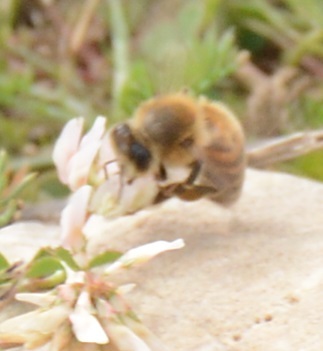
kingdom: Animalia
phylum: Arthropoda
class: Insecta
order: Hymenoptera
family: Apidae
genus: Apis
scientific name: Apis mellifera
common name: Honey bee
